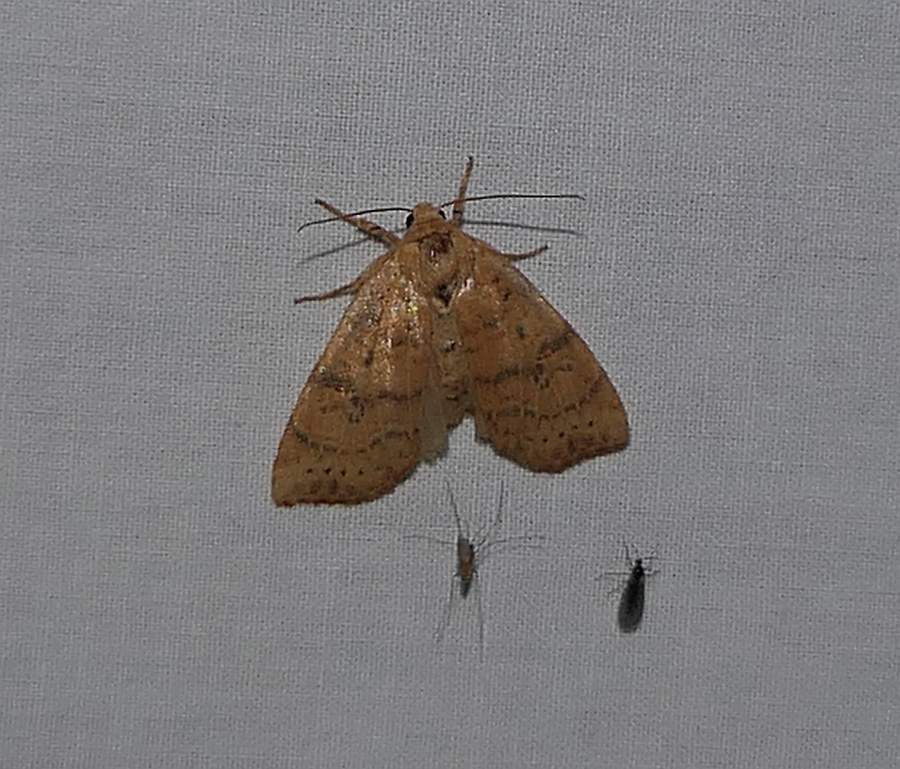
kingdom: Animalia
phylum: Arthropoda
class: Insecta
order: Lepidoptera
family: Noctuidae
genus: Anathix
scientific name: Anathix ralla
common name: Dotted sallow
